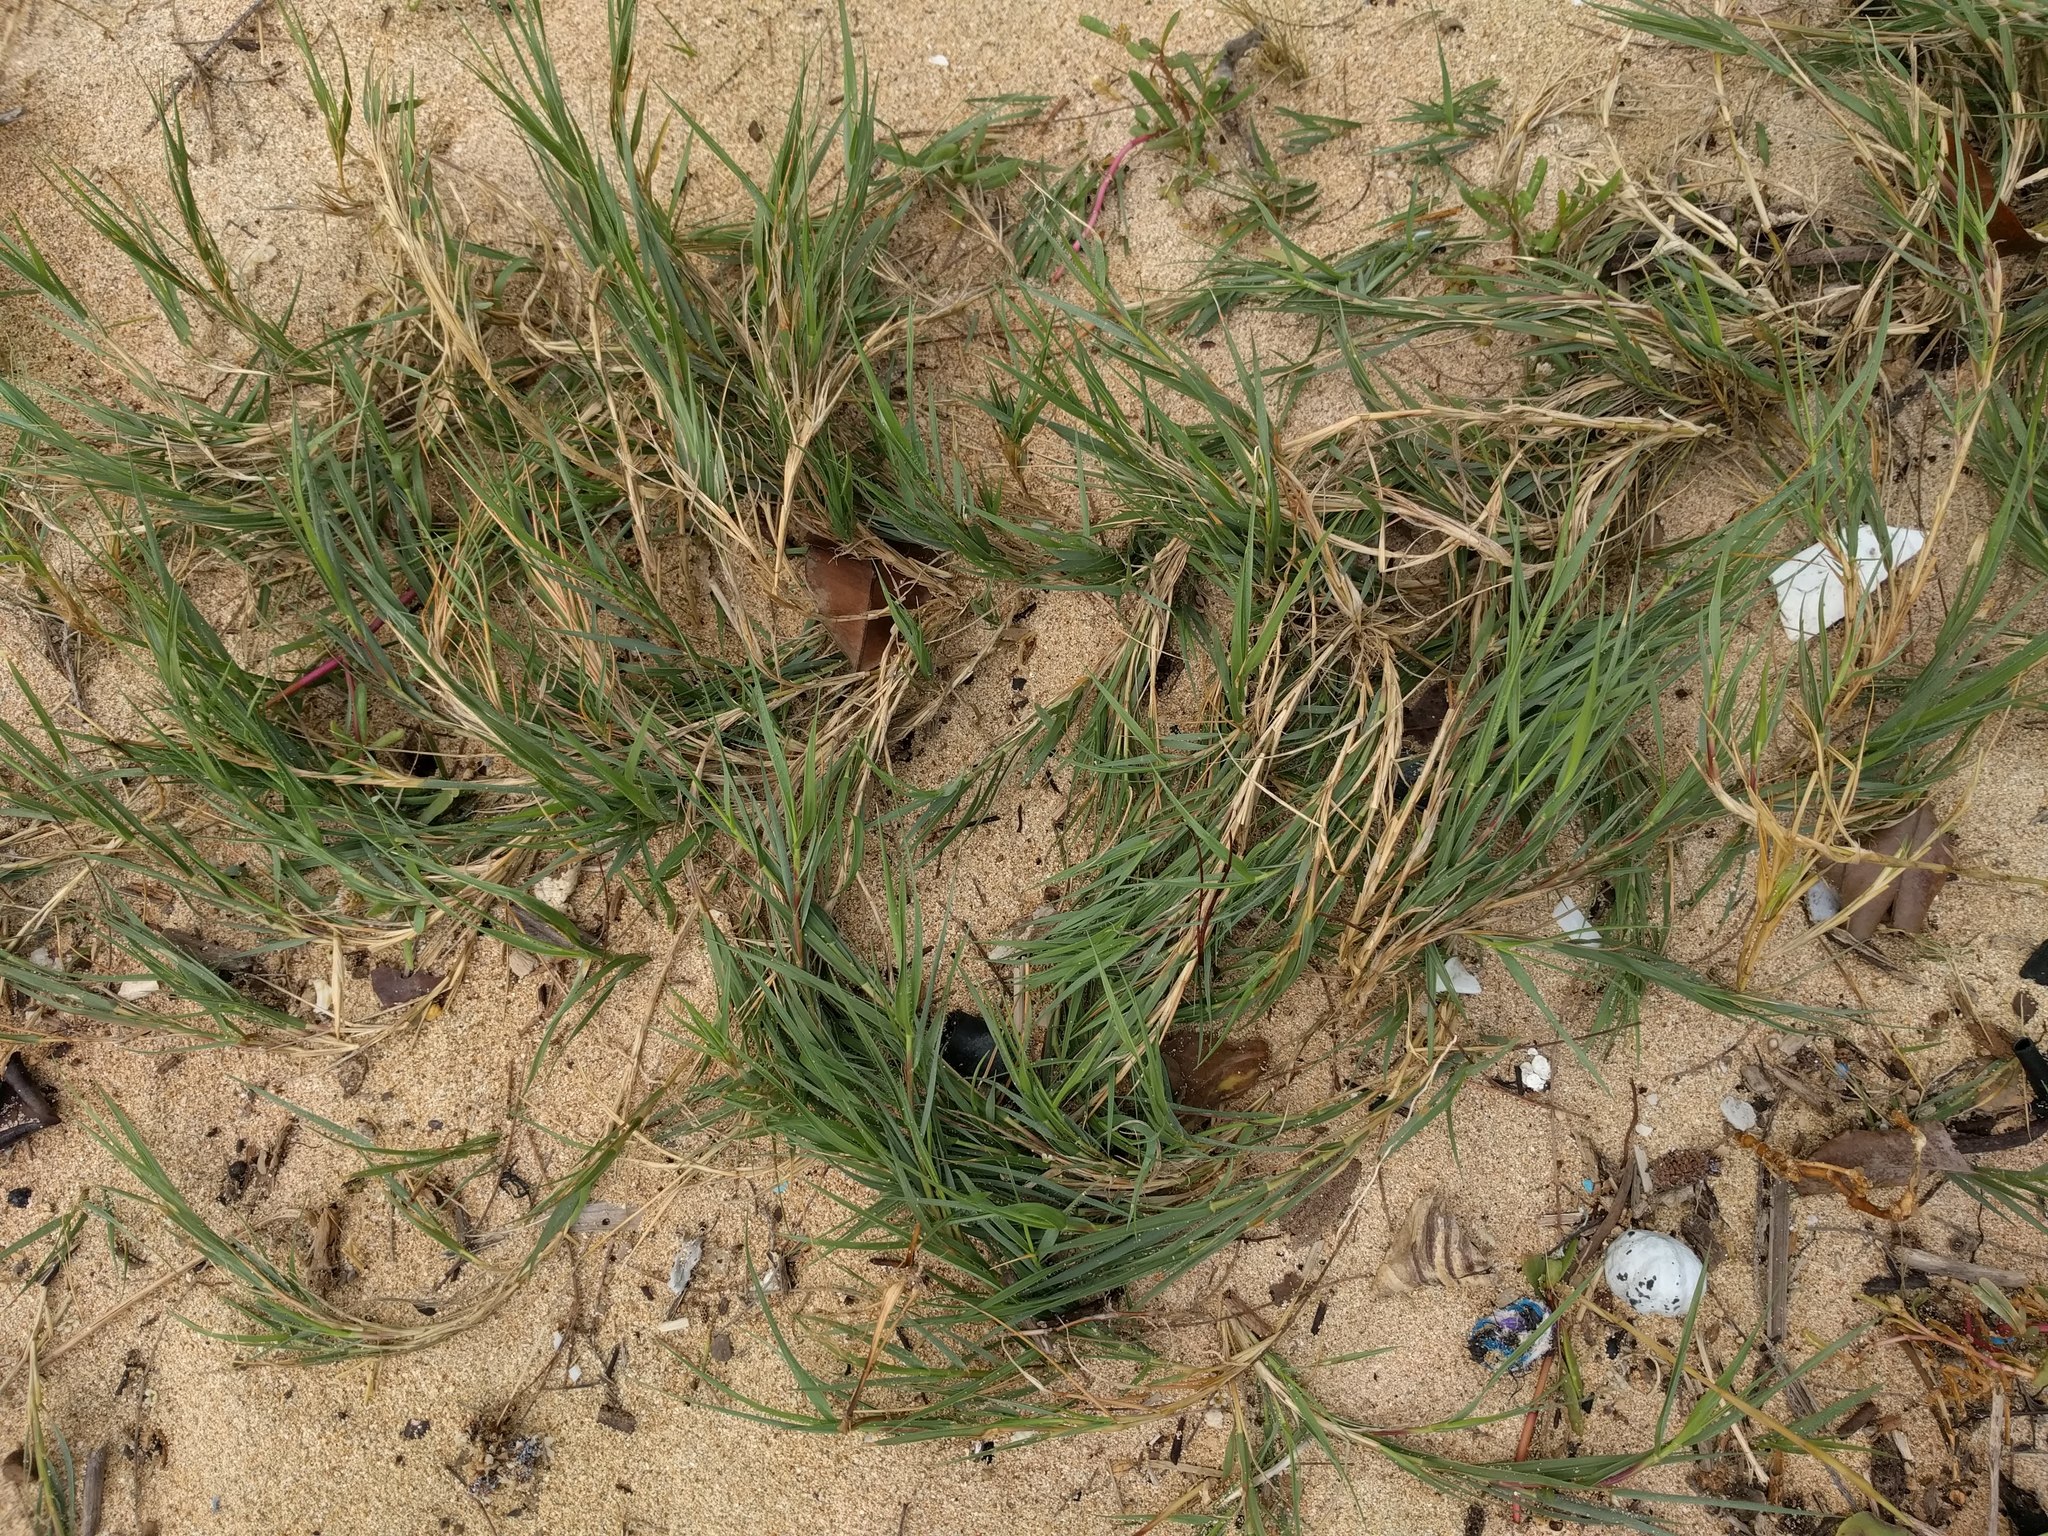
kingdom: Plantae
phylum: Tracheophyta
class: Liliopsida
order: Poales
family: Poaceae
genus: Sporobolus
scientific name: Sporobolus virginicus
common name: Beach dropseed
